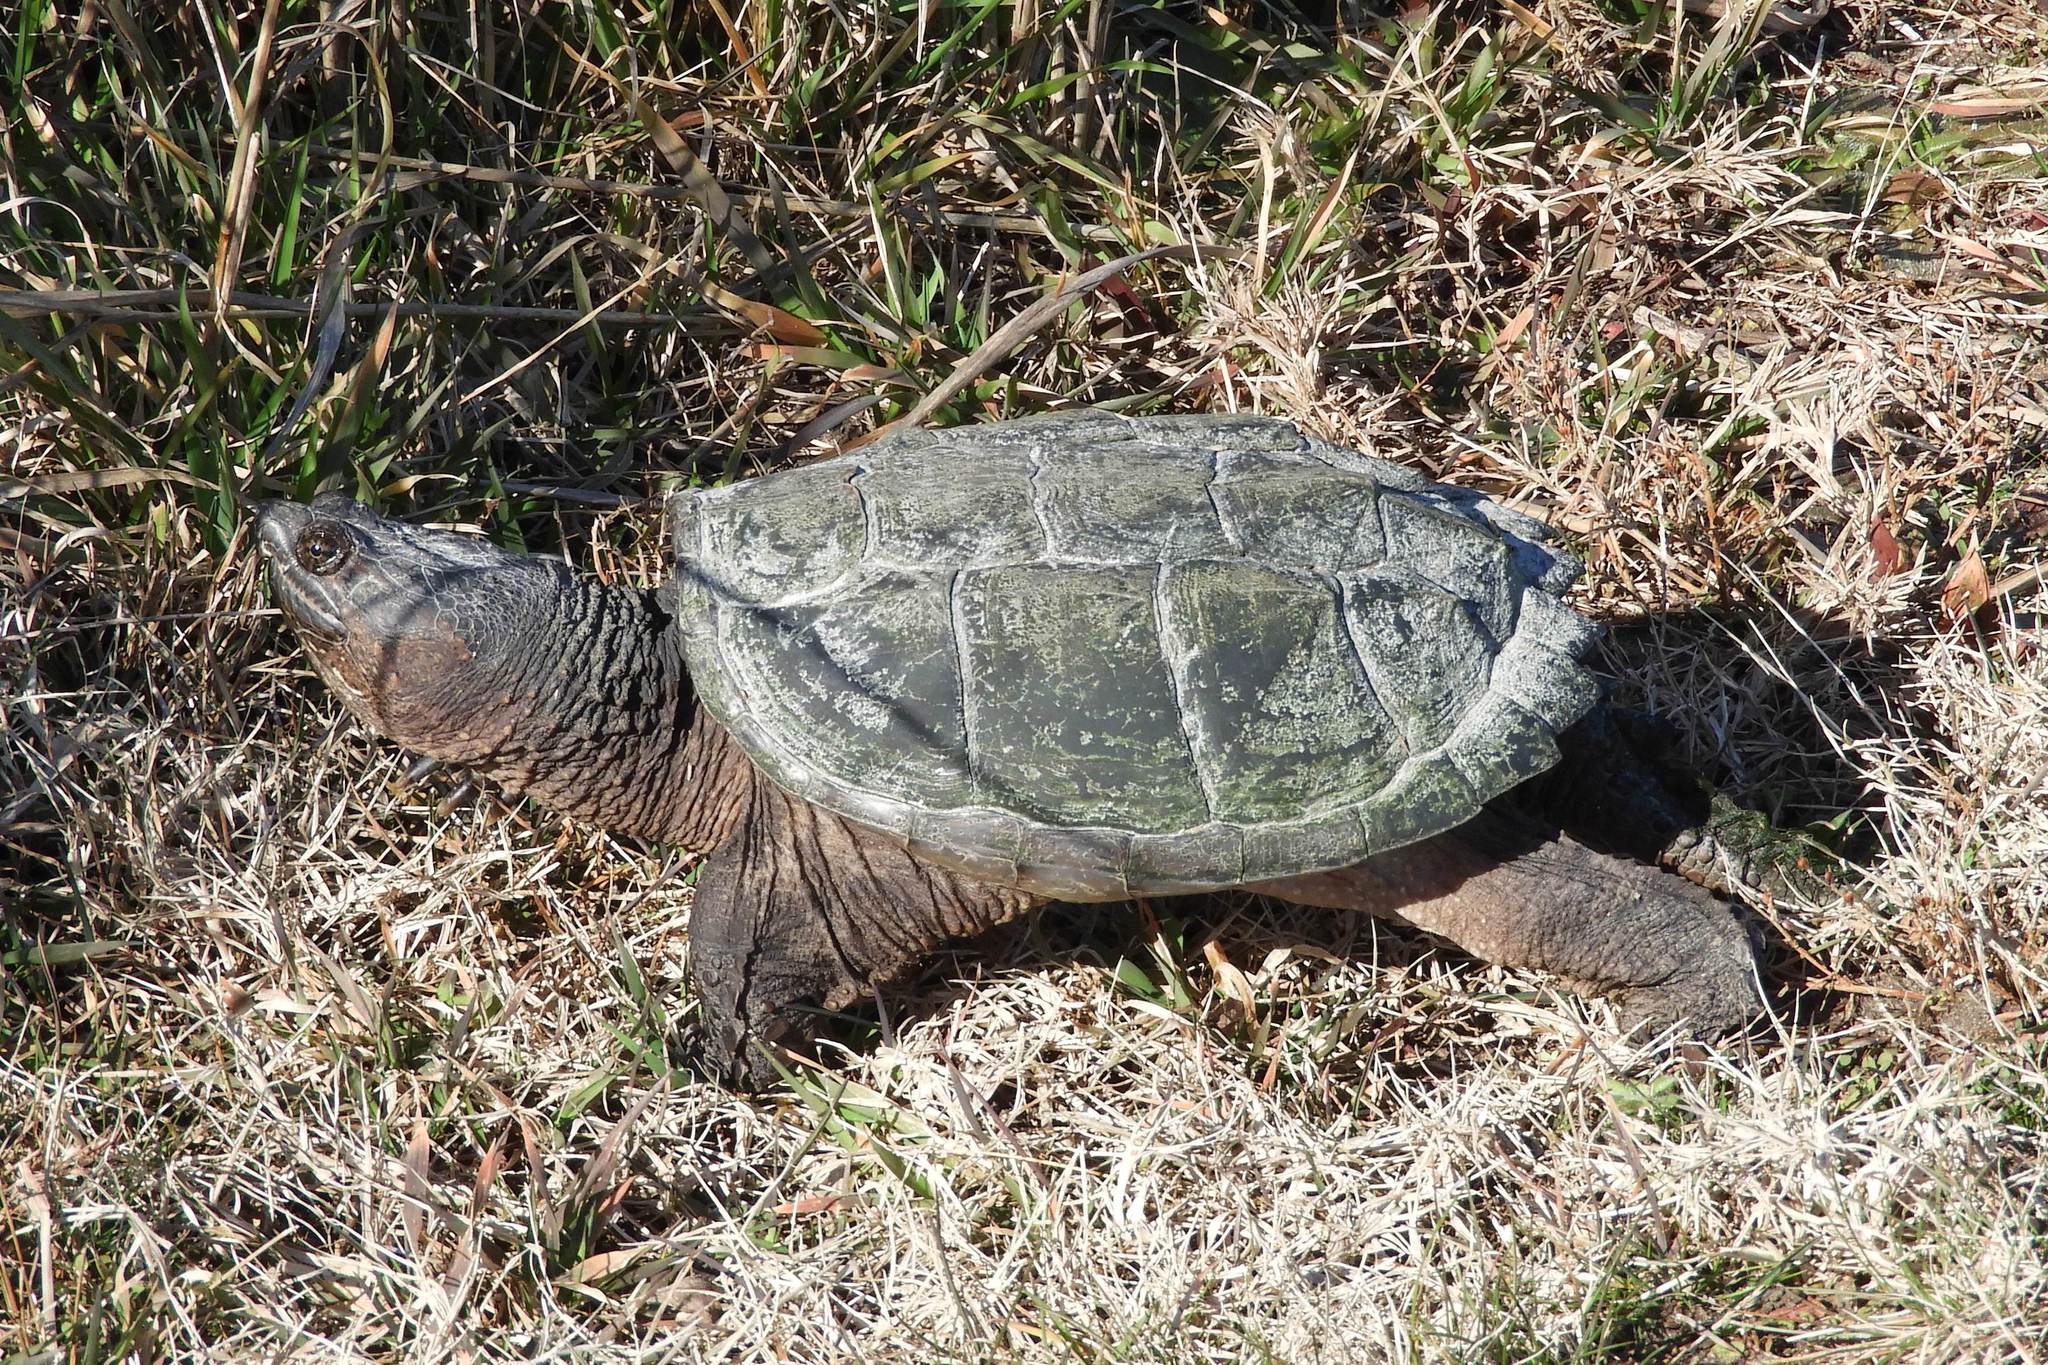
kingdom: Animalia
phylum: Chordata
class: Testudines
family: Chelydridae
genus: Chelydra
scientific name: Chelydra serpentina
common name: Common snapping turtle
